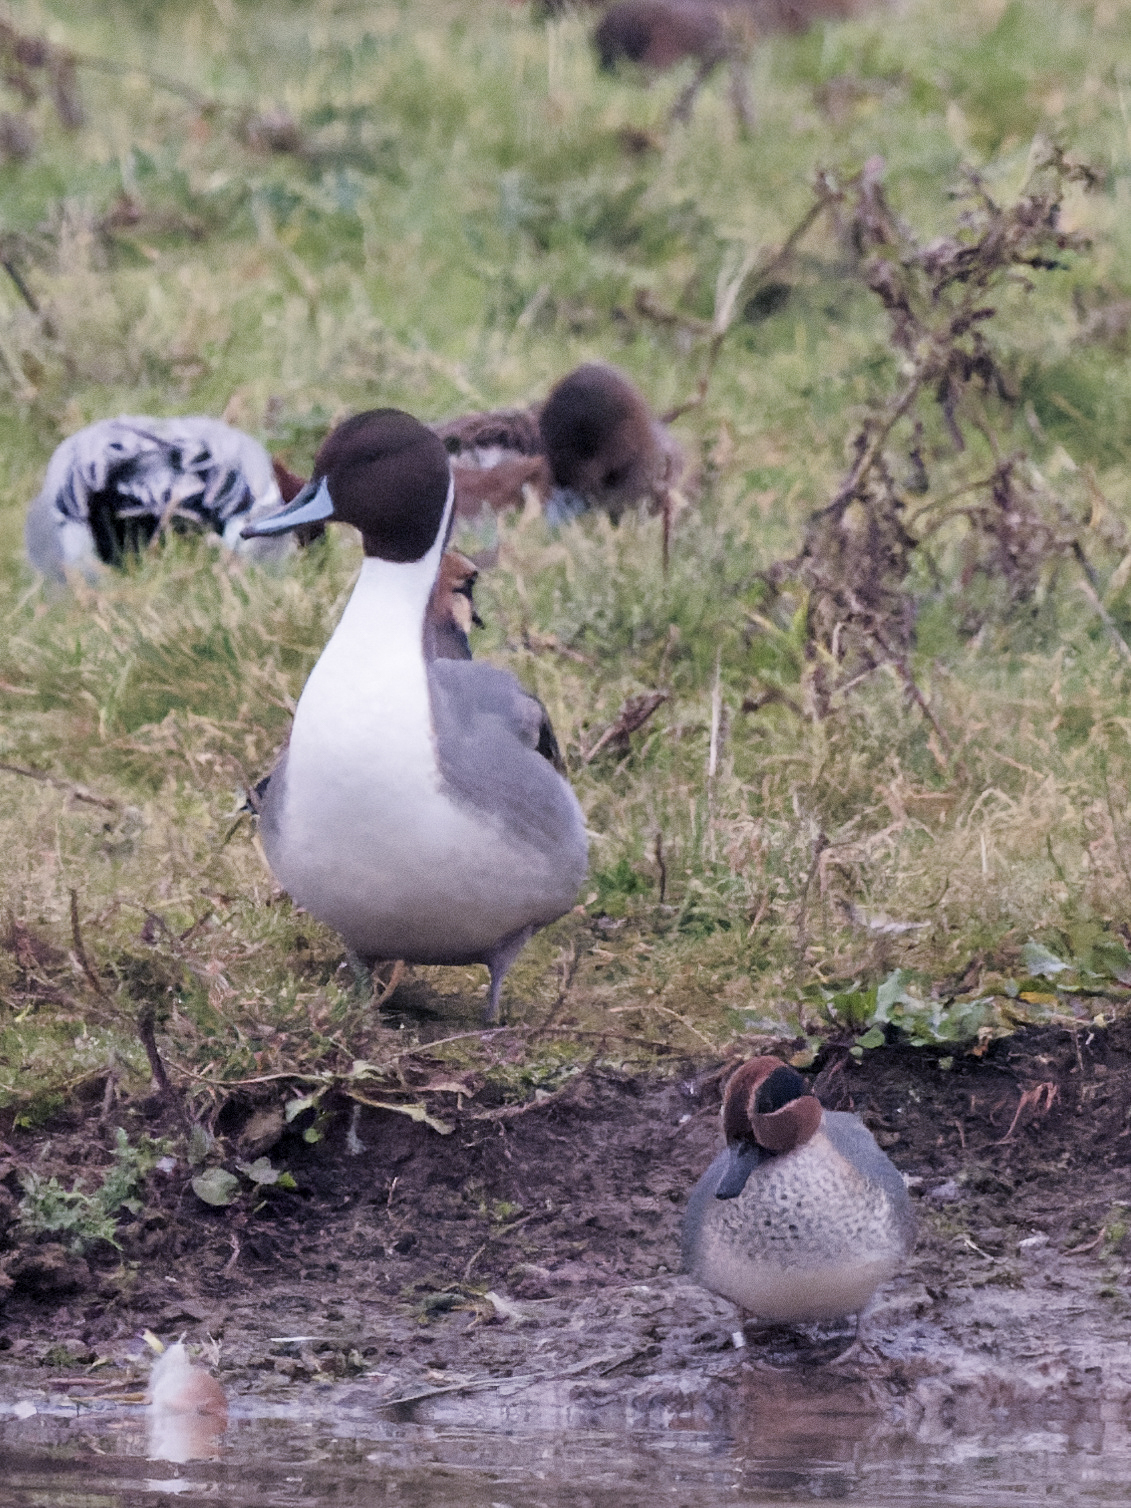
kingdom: Animalia
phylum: Chordata
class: Aves
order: Anseriformes
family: Anatidae
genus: Anas
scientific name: Anas acuta
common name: Northern pintail
